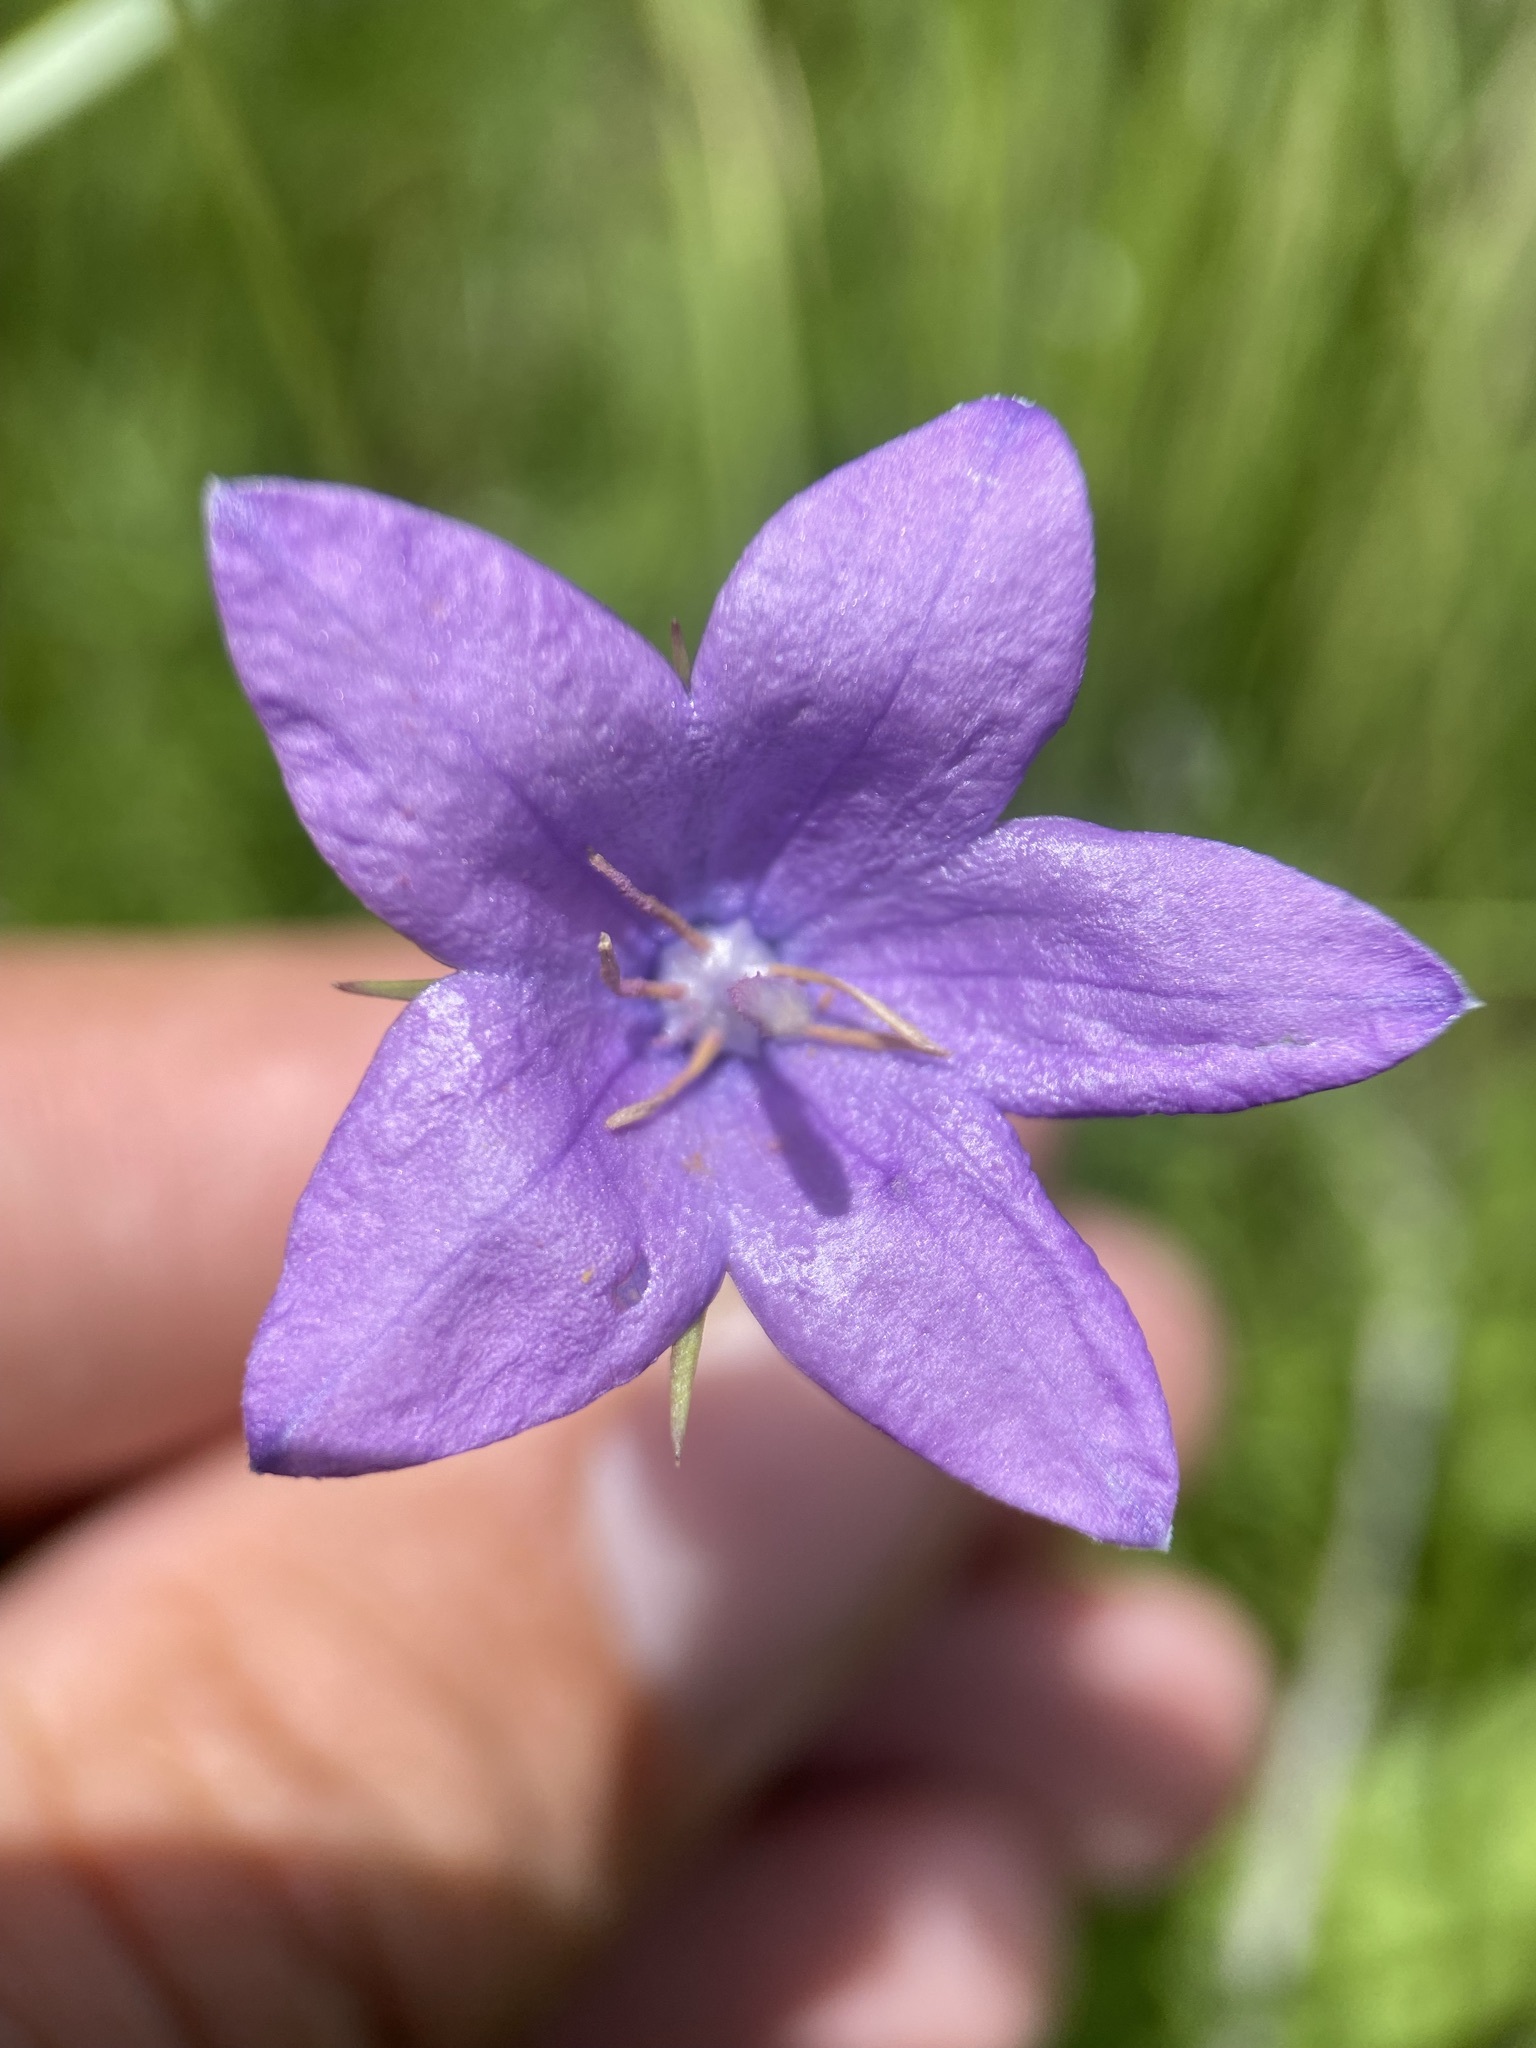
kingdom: Plantae
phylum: Tracheophyta
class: Magnoliopsida
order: Asterales
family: Campanulaceae
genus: Campanula
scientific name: Campanula parryi
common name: Rocky mountain bellflower
